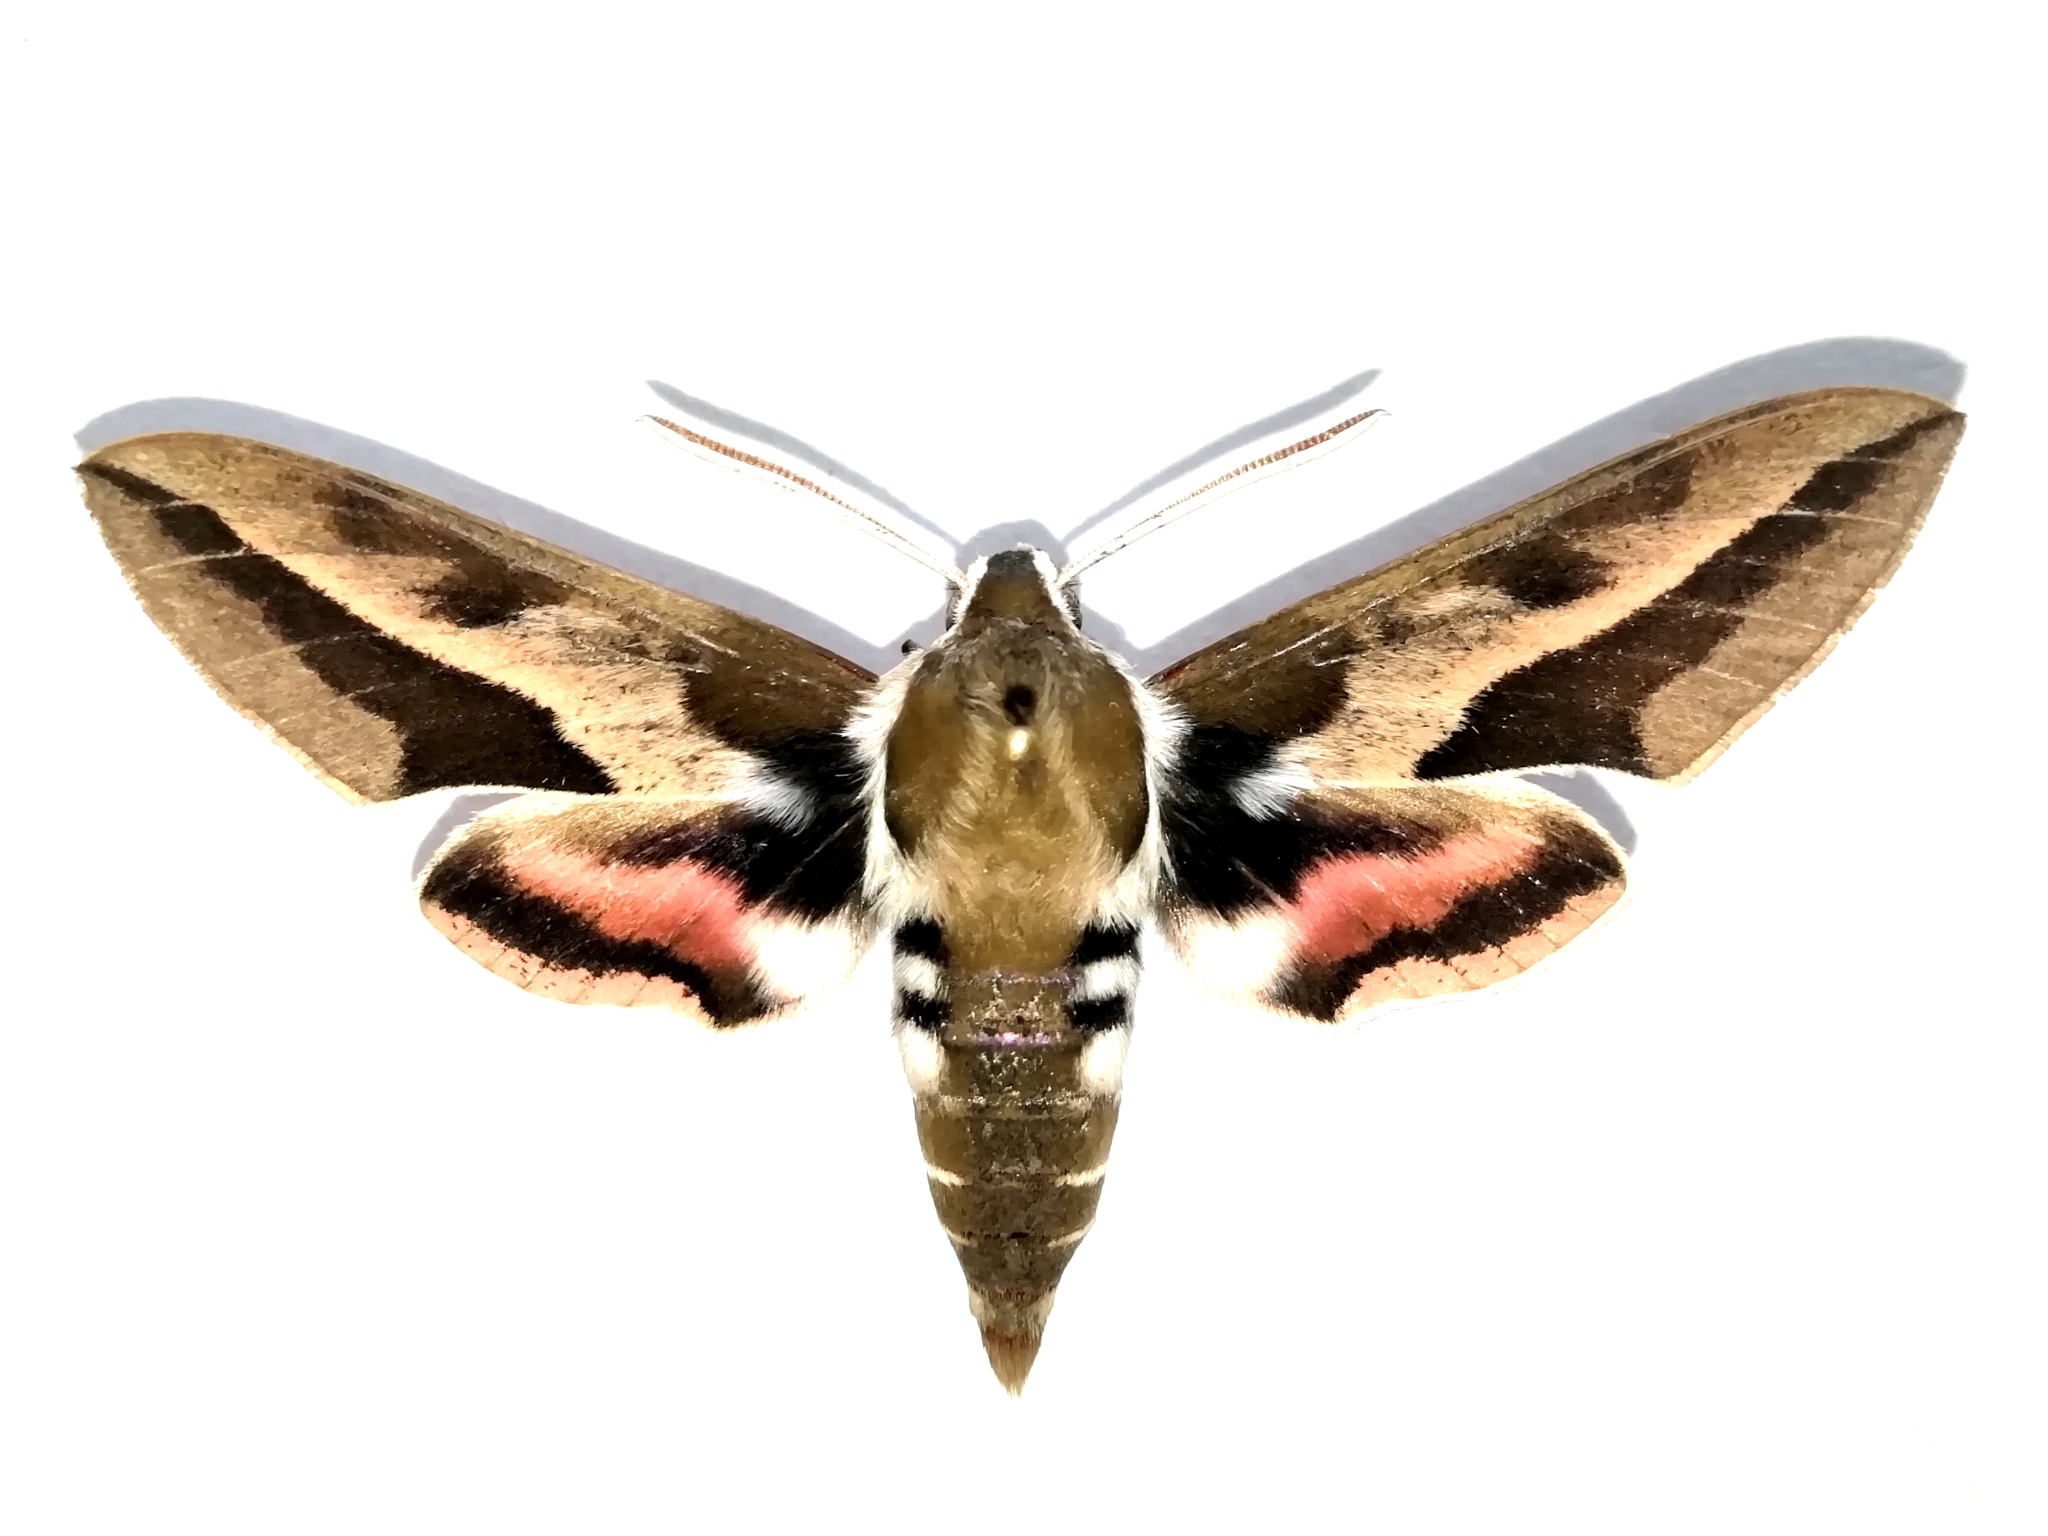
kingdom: Animalia
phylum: Arthropoda
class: Insecta
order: Lepidoptera
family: Sphingidae
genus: Hyles
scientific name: Hyles euphorbiae
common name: Spurge hawk-moth
